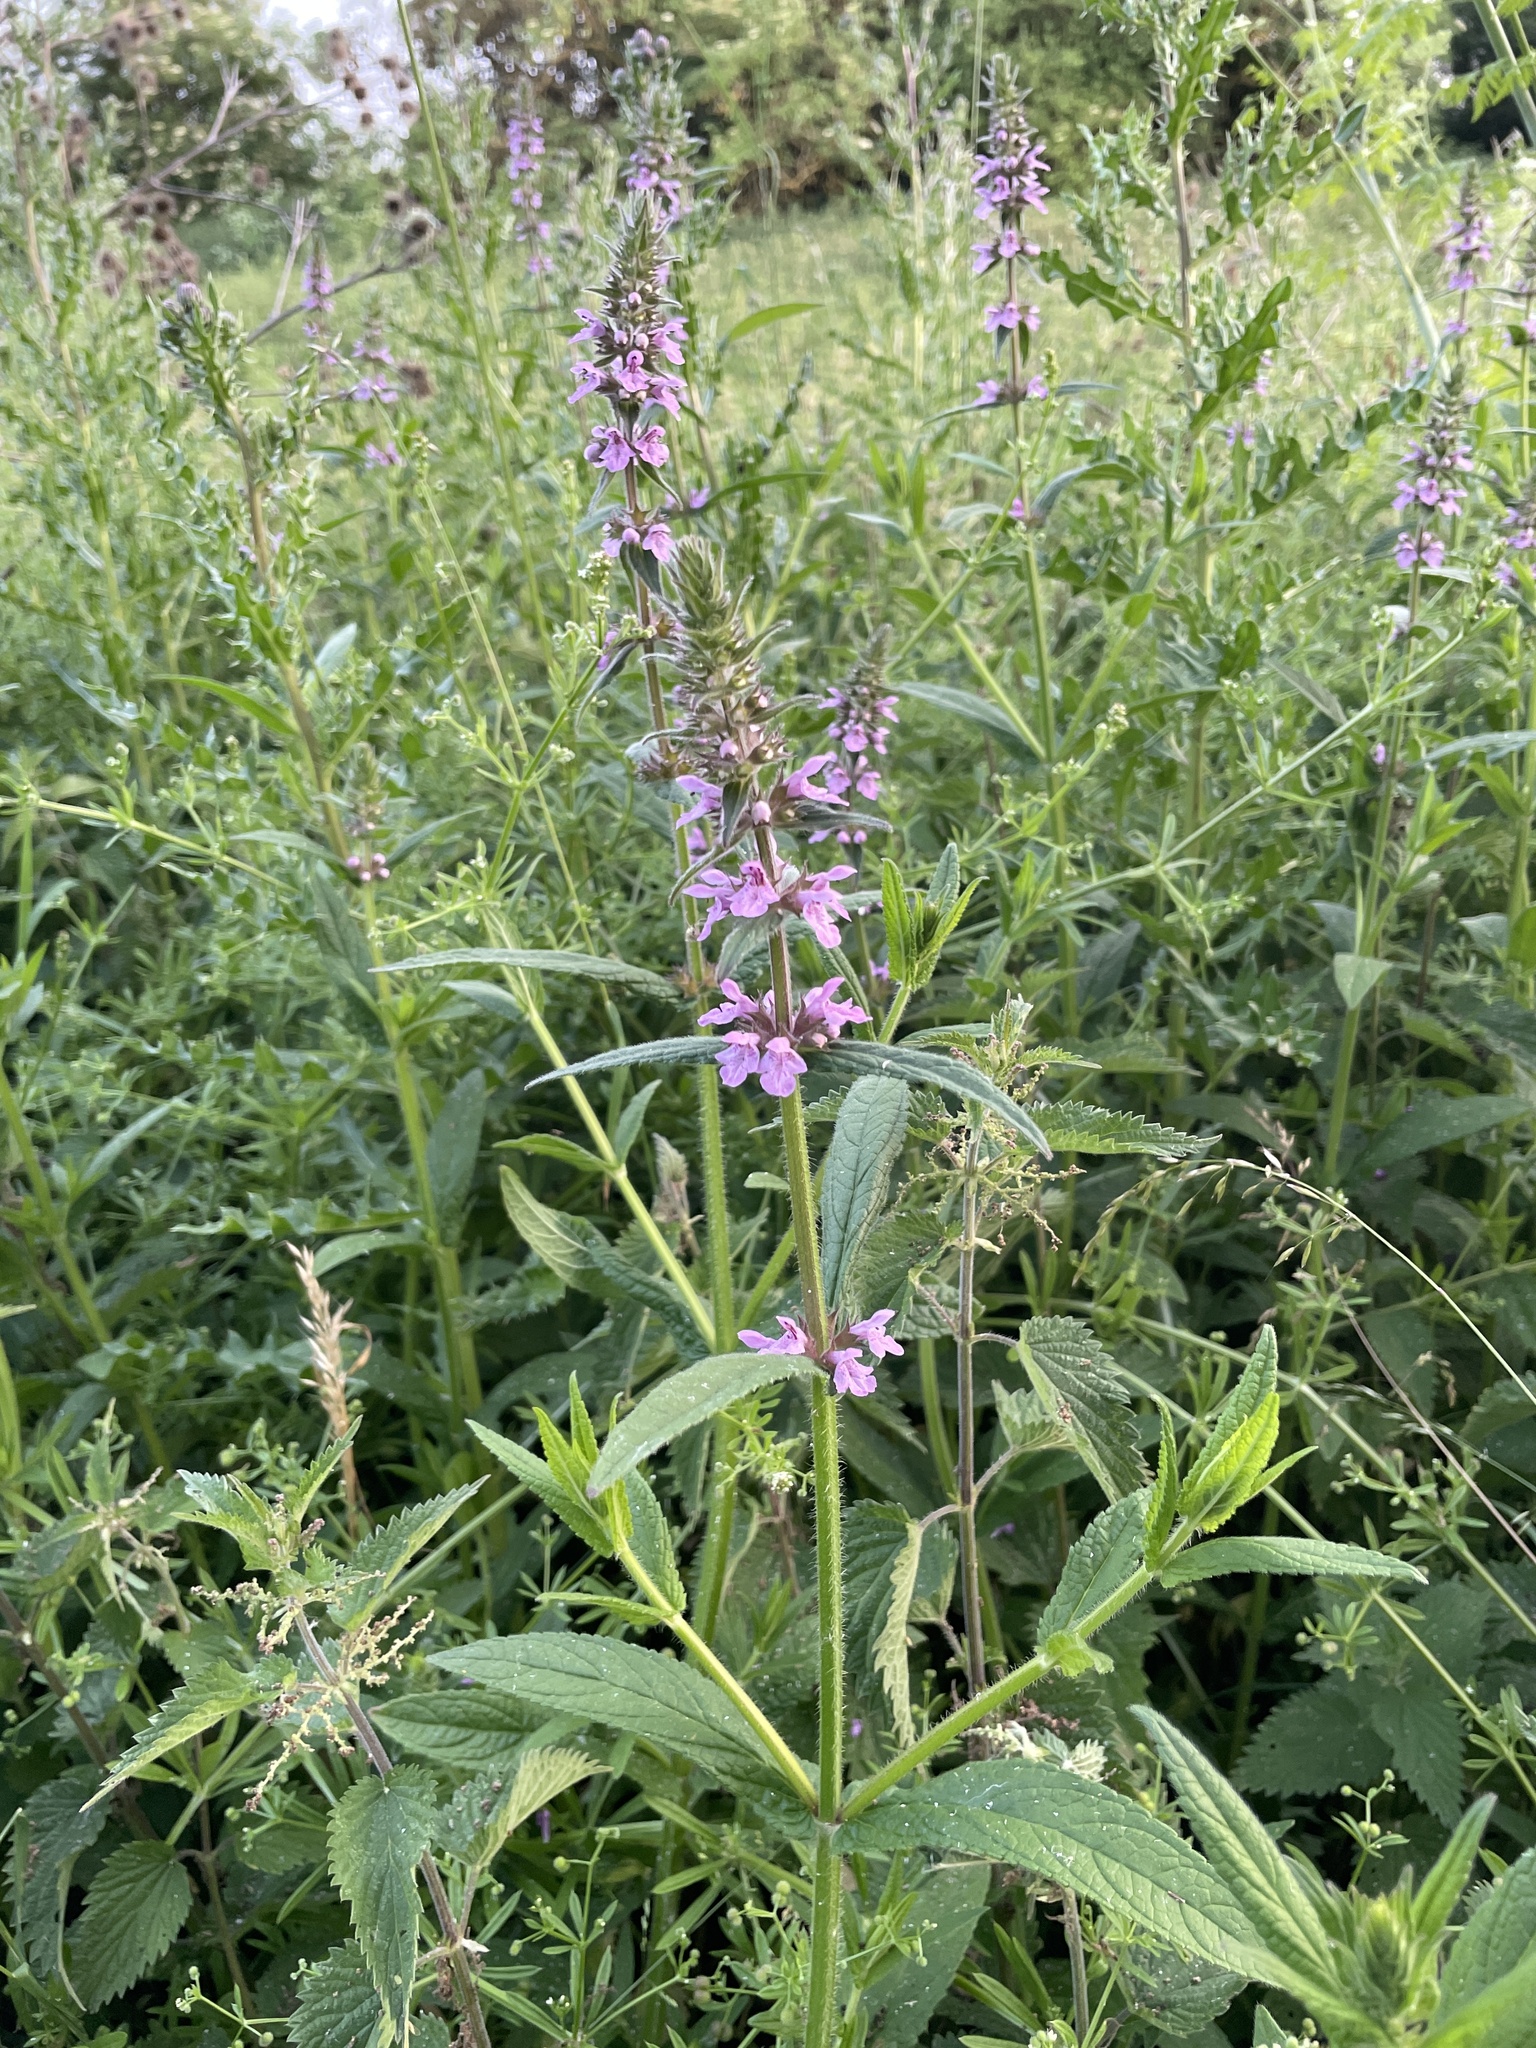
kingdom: Plantae
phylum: Tracheophyta
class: Magnoliopsida
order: Lamiales
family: Lamiaceae
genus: Stachys
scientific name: Stachys palustris
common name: Marsh woundwort
